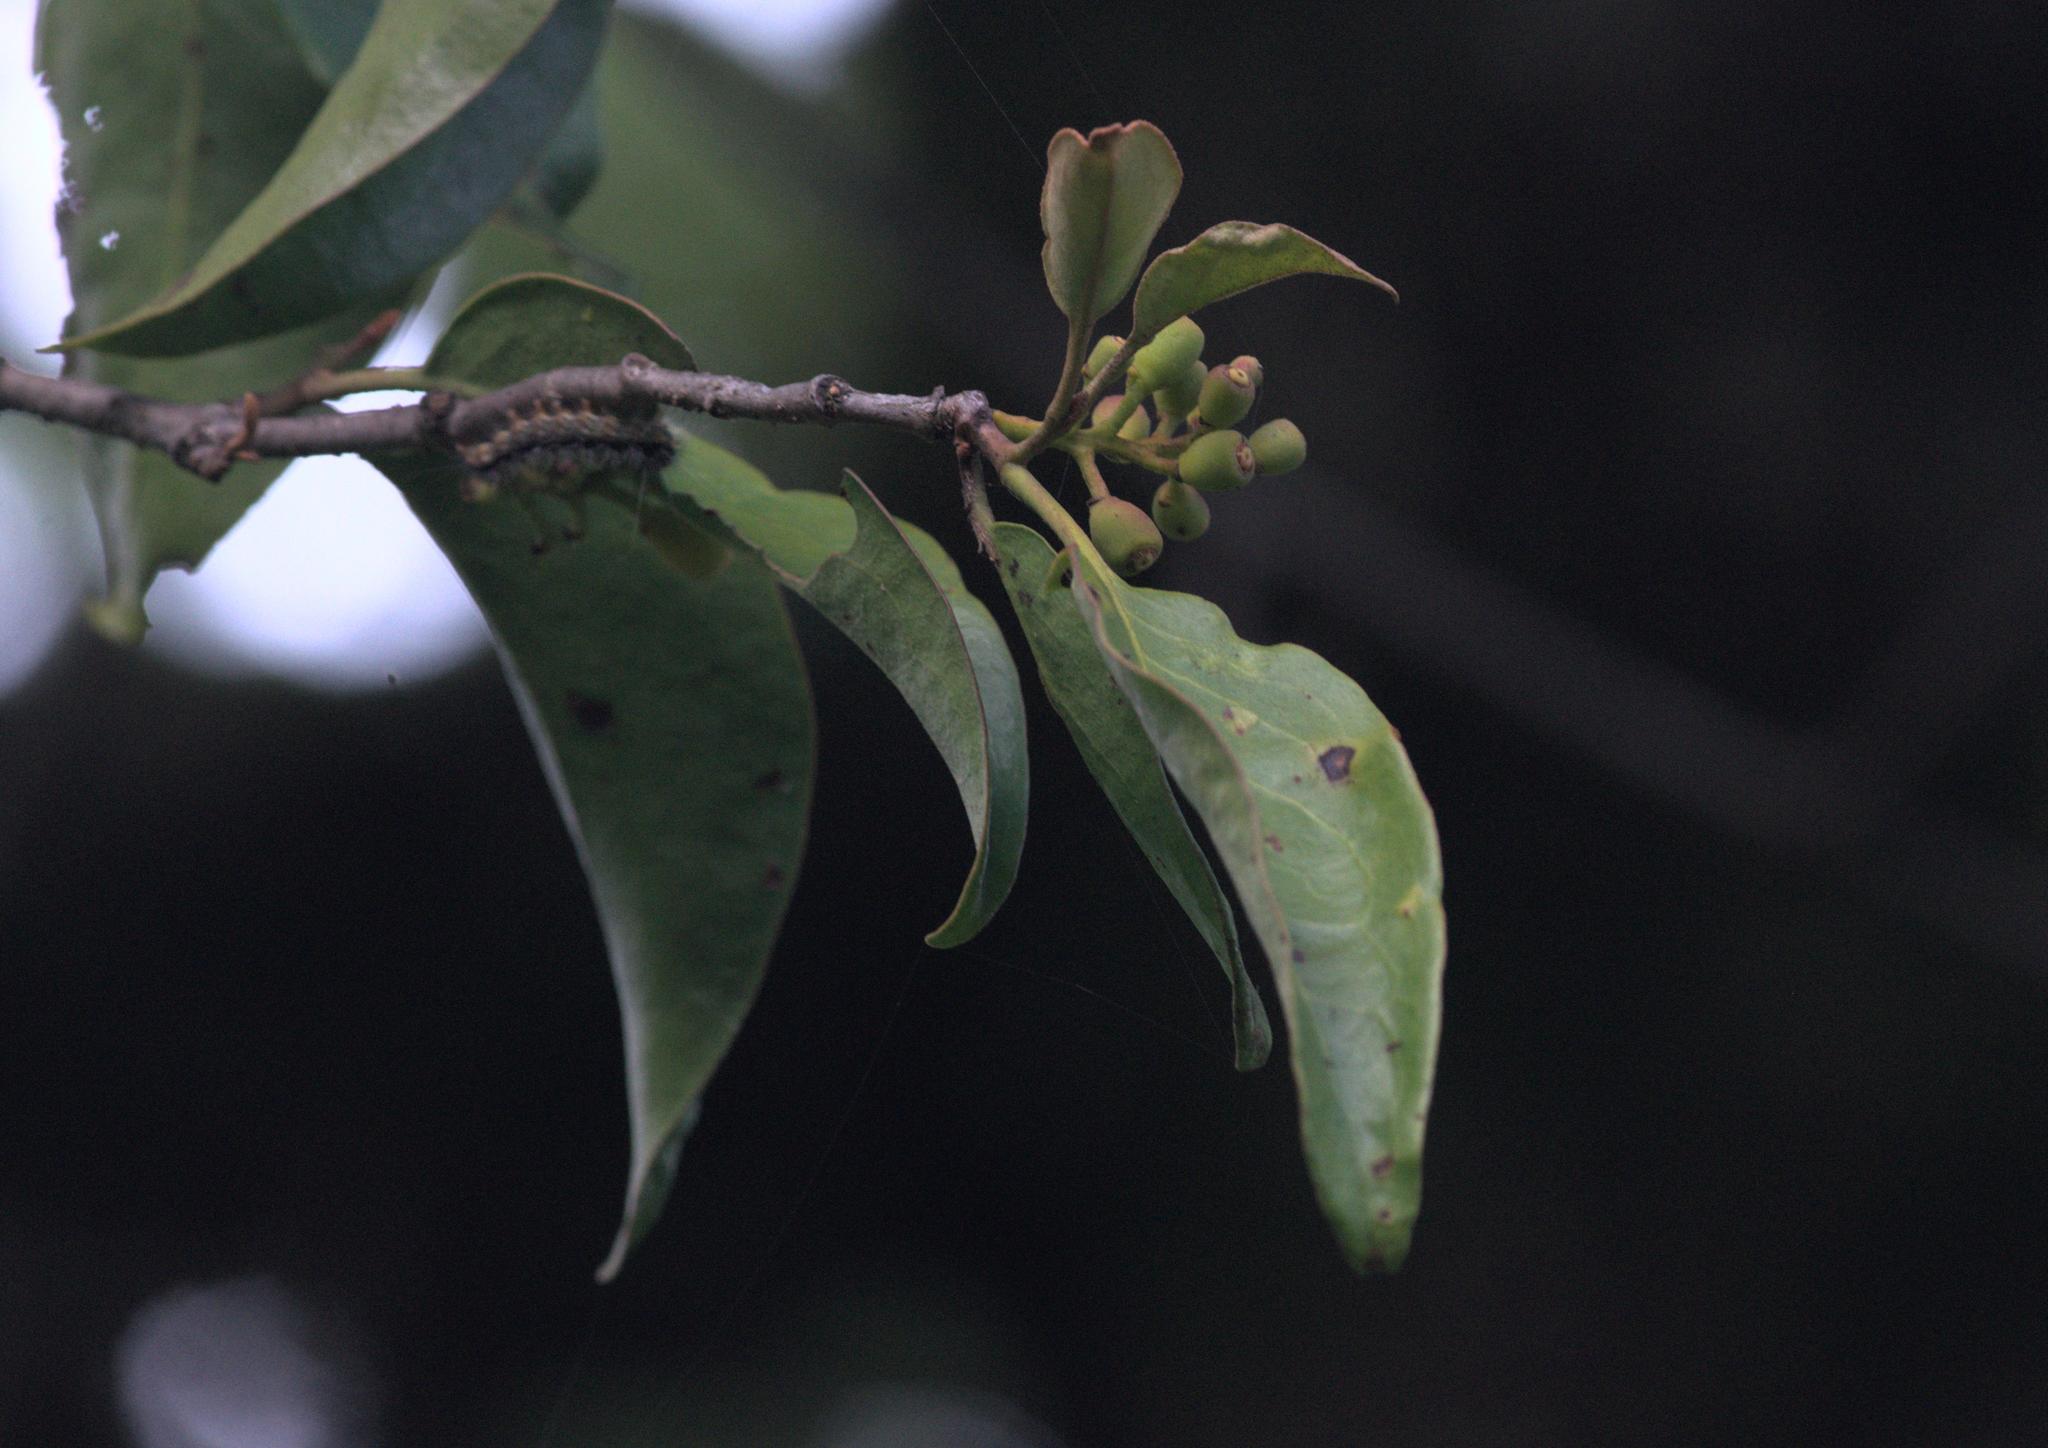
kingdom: Plantae
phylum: Tracheophyta
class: Magnoliopsida
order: Santalales
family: Loranthaceae
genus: Scurrula
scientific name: Scurrula elata
